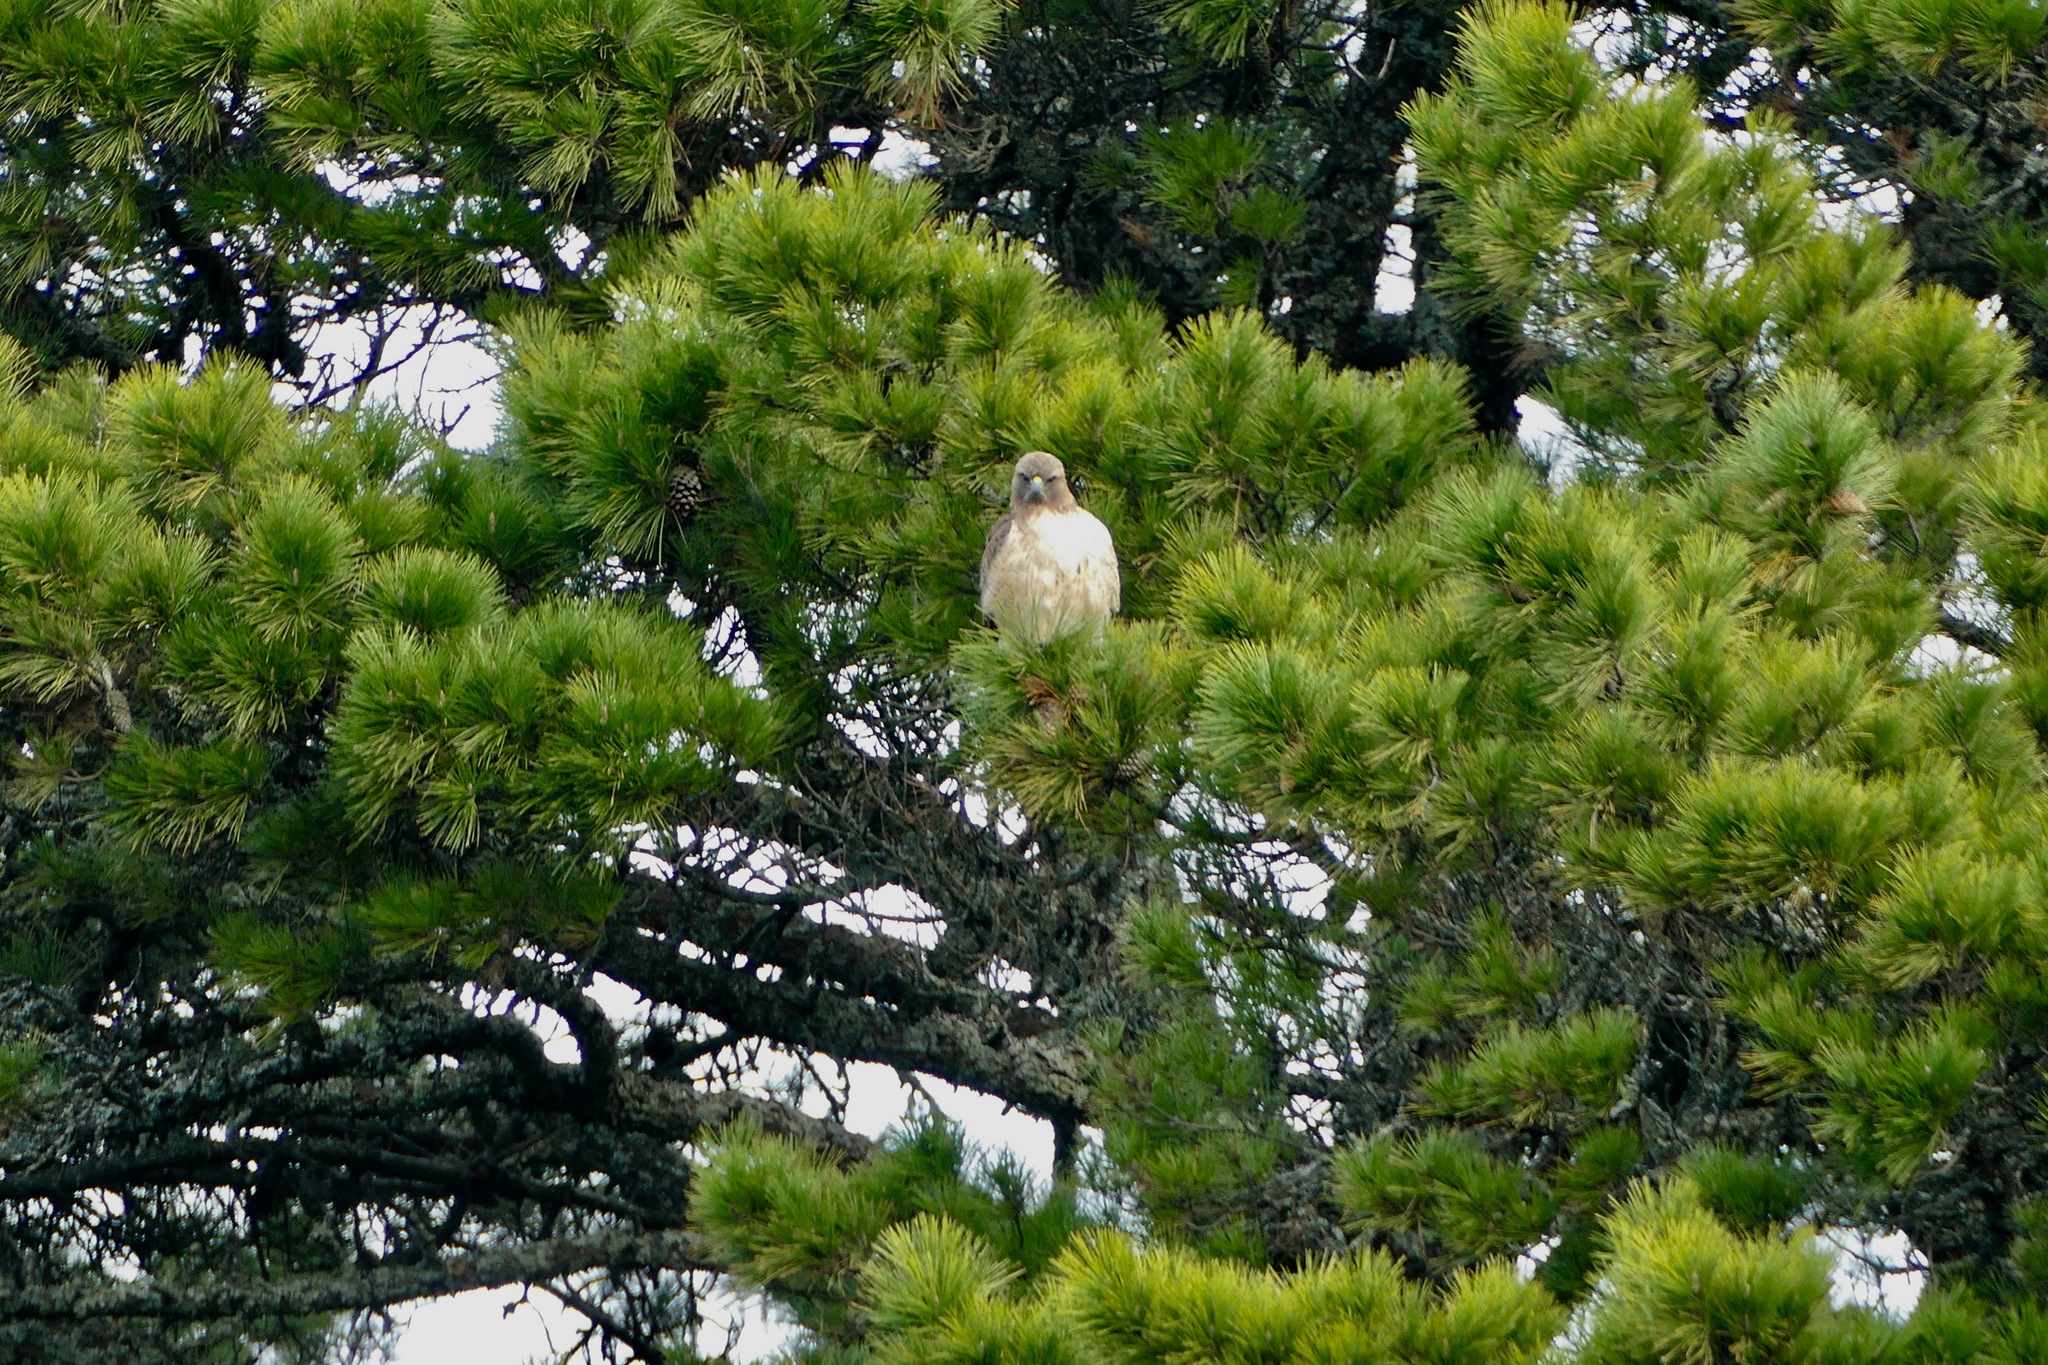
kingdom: Animalia
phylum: Chordata
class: Aves
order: Accipitriformes
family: Accipitridae
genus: Buteo
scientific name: Buteo jamaicensis
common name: Red-tailed hawk
